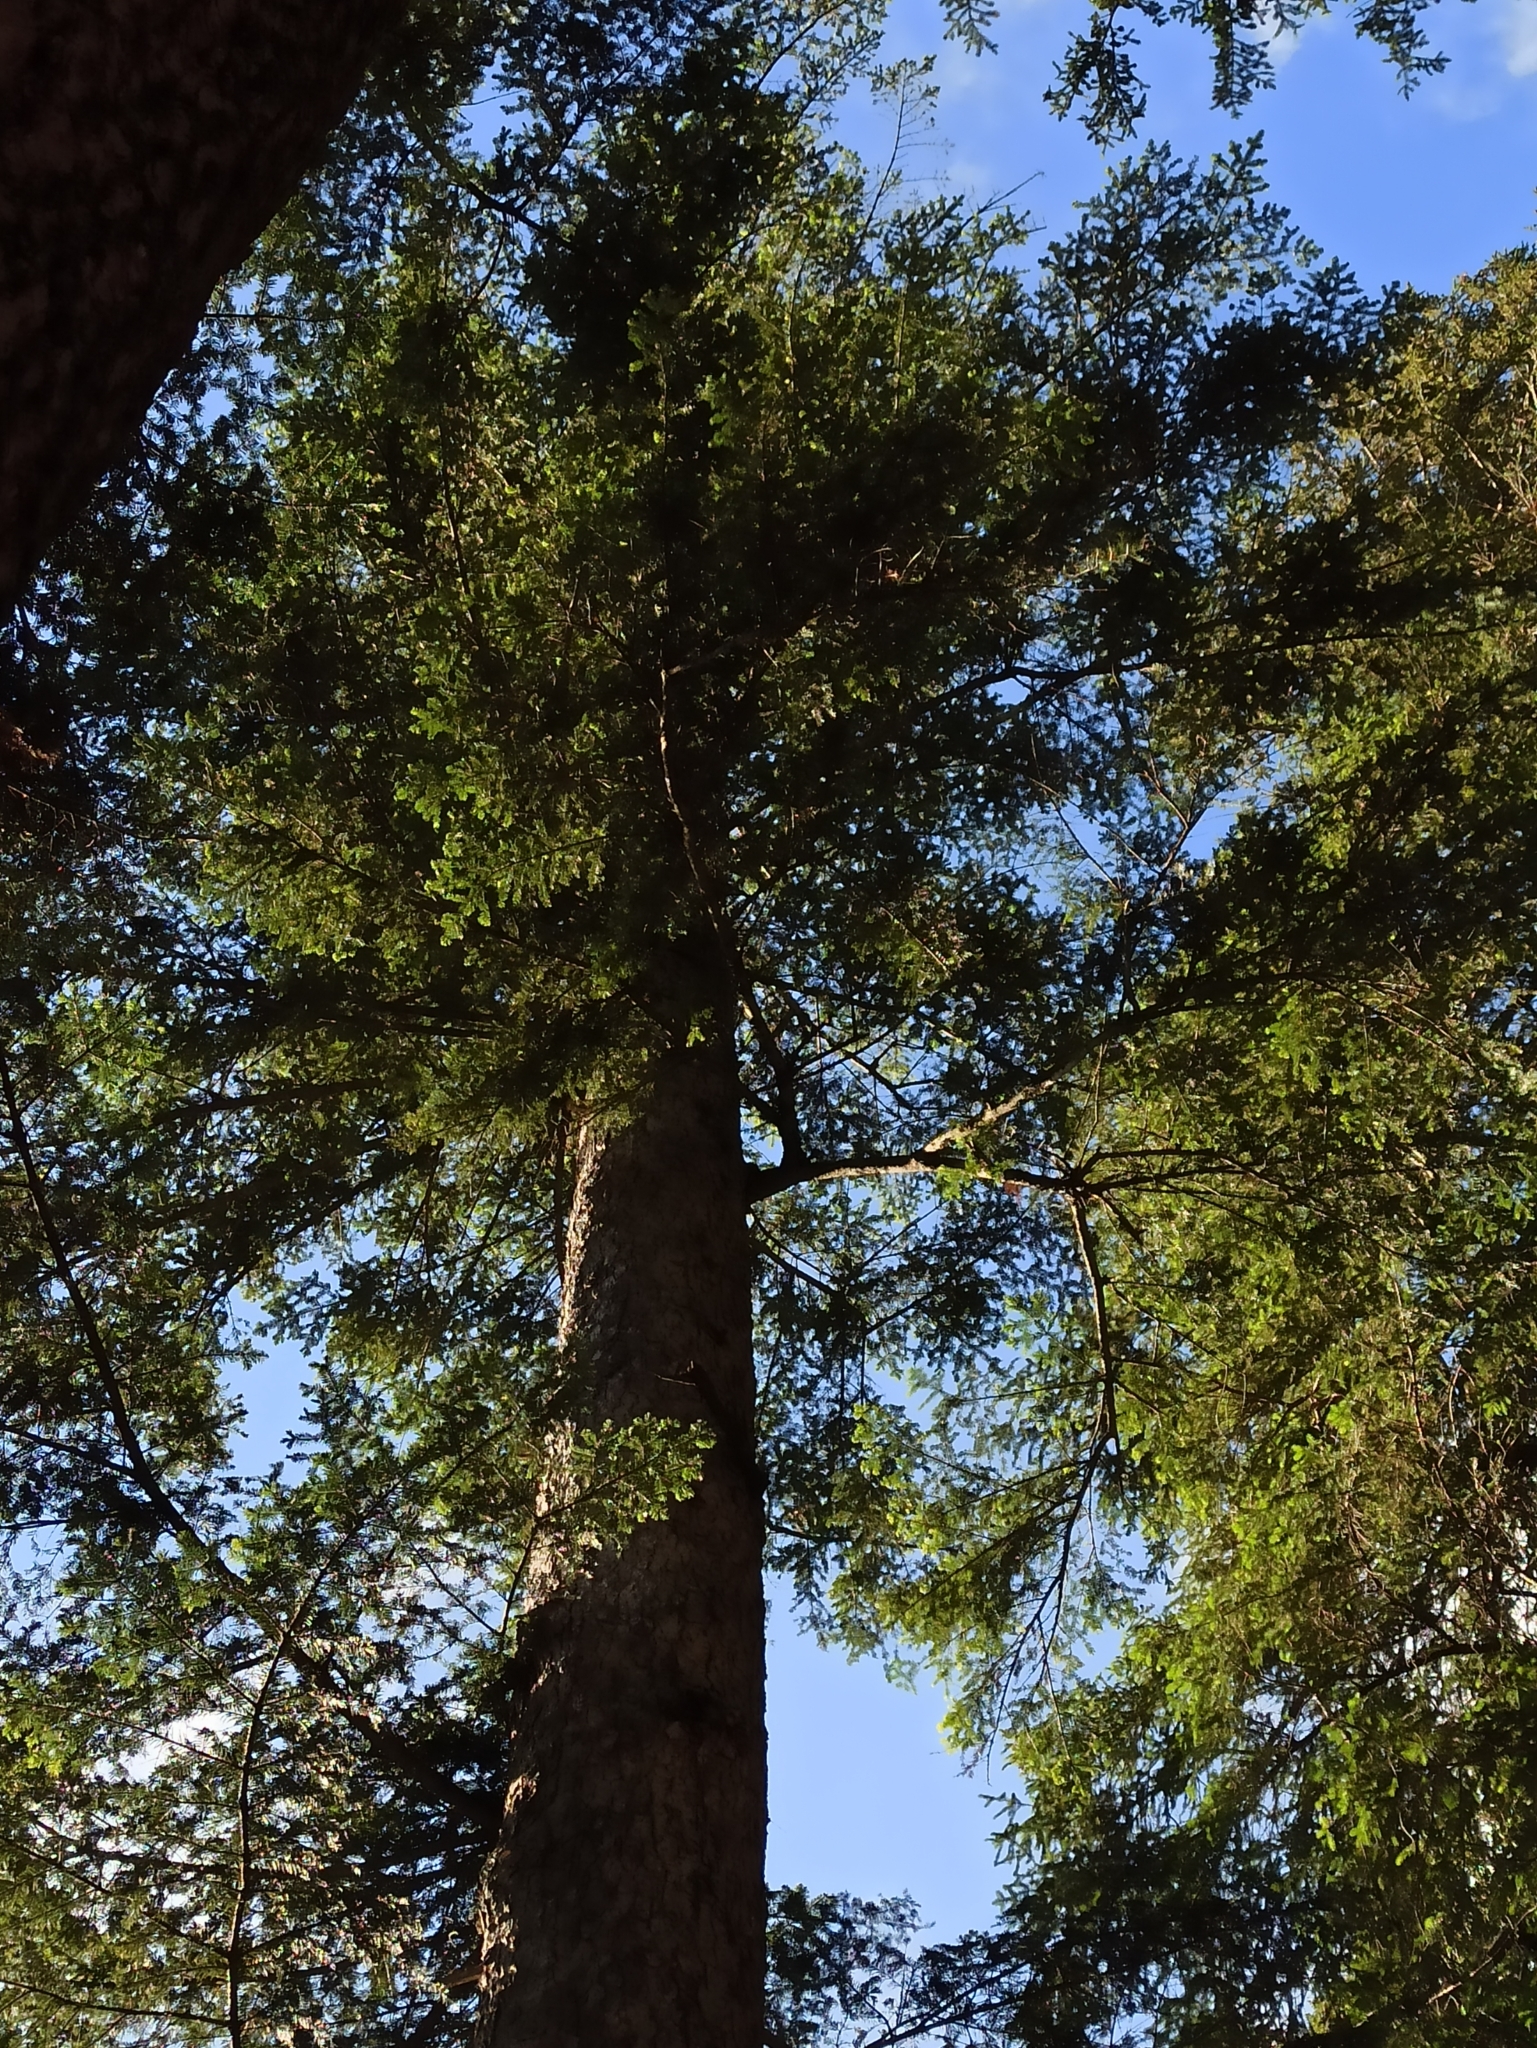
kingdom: Plantae
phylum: Tracheophyta
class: Pinopsida
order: Pinales
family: Pinaceae
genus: Abies
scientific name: Abies alba
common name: Silver fir
